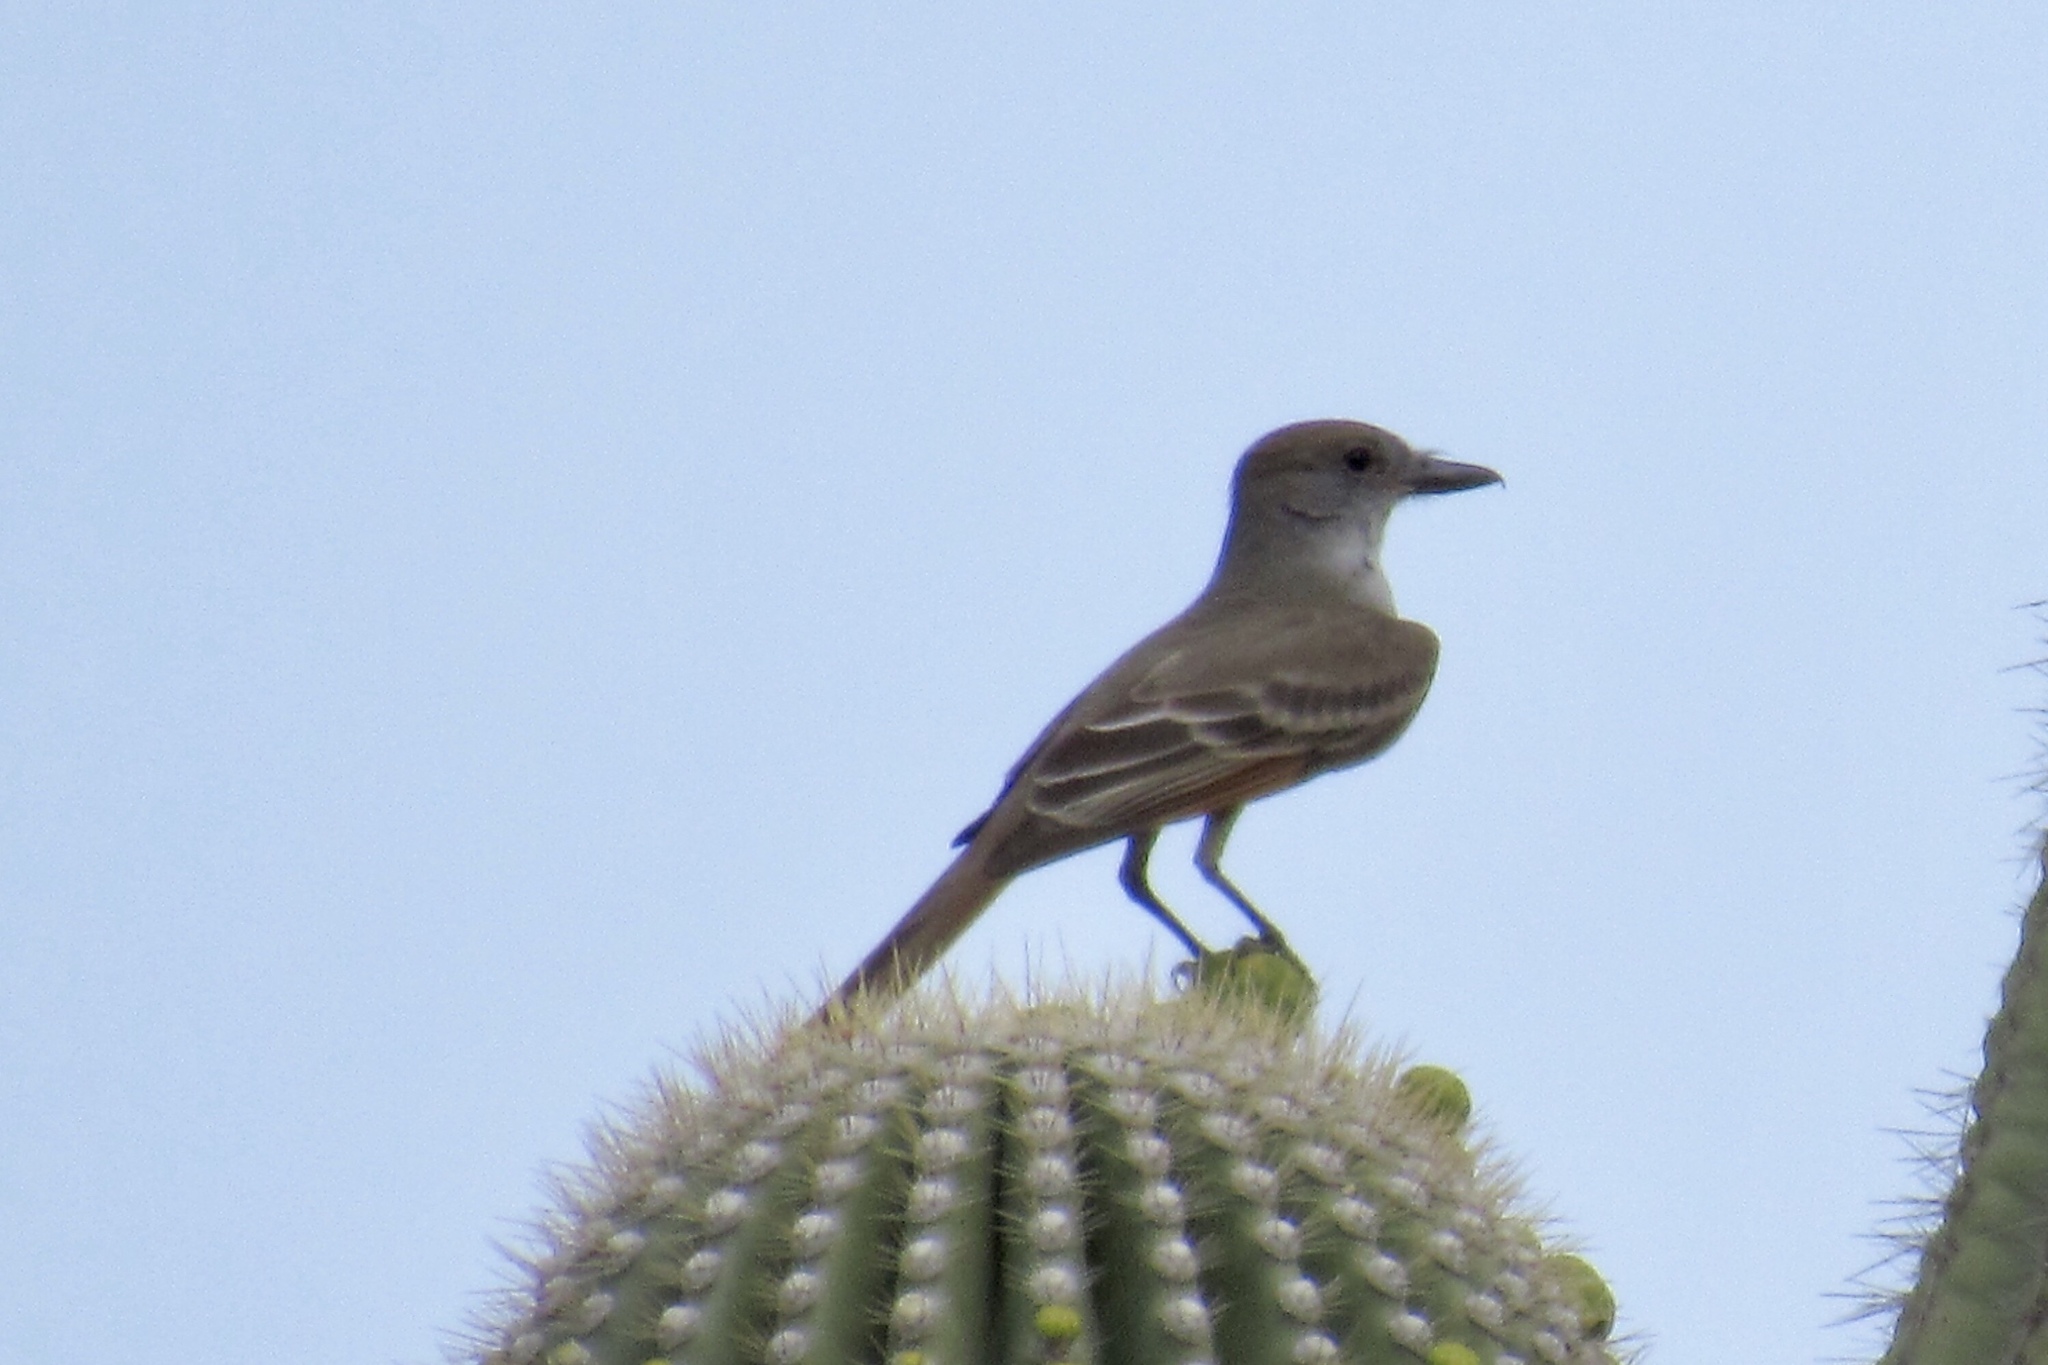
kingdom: Animalia
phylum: Chordata
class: Aves
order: Passeriformes
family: Tyrannidae
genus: Myiarchus
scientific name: Myiarchus tyrannulus
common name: Brown-crested flycatcher
